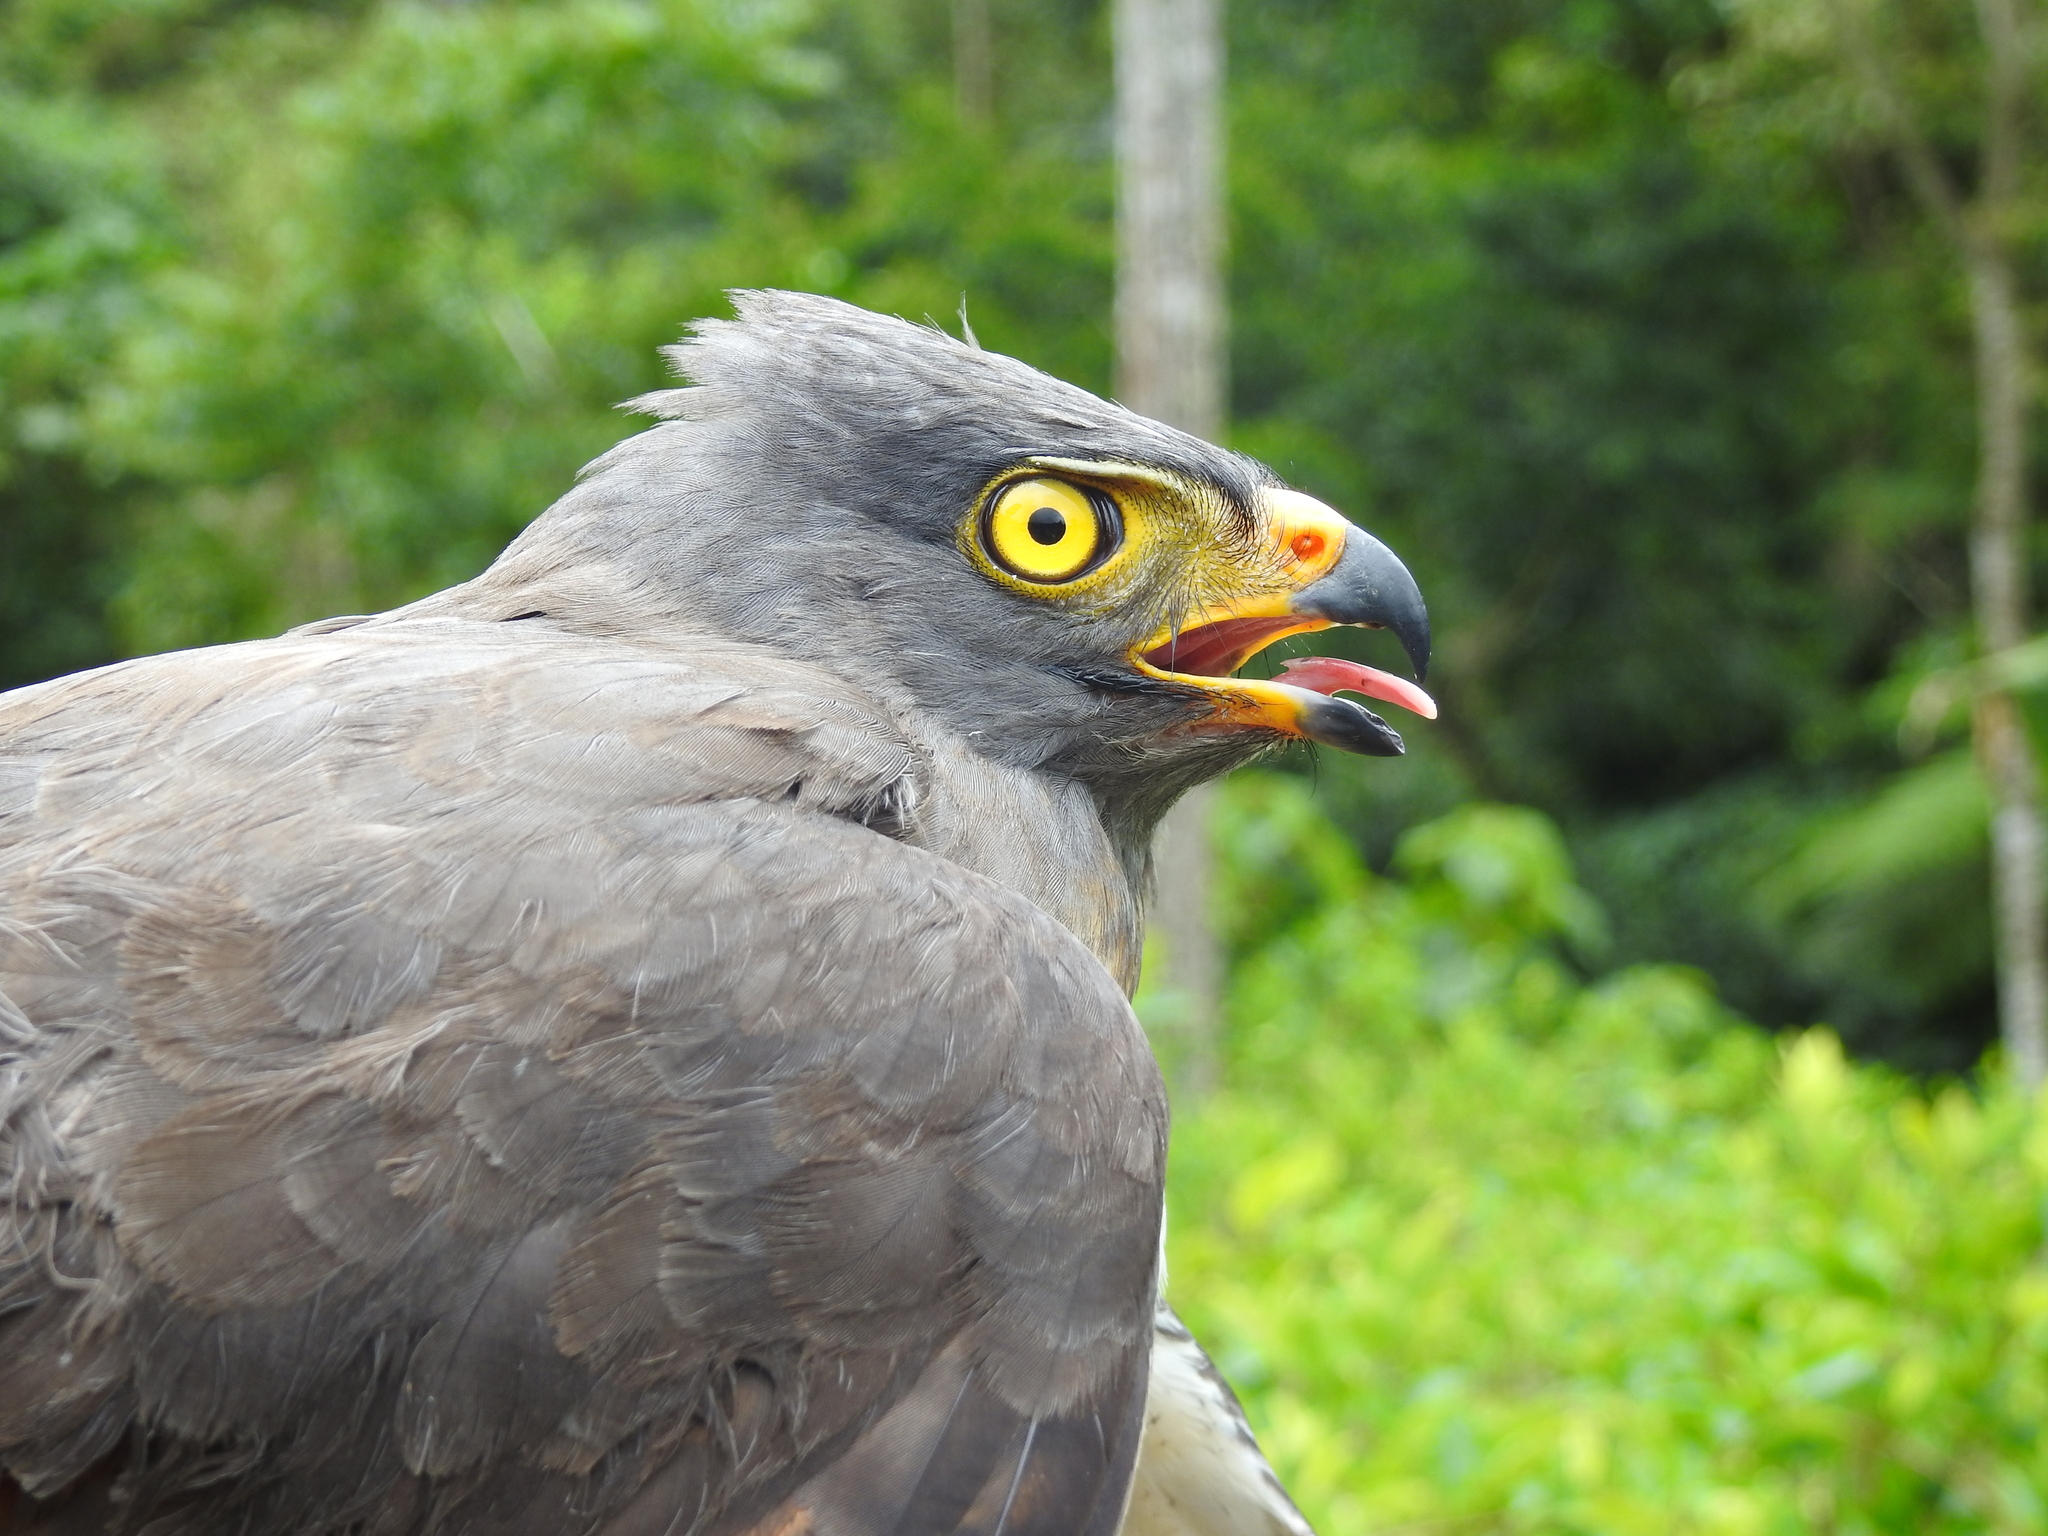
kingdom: Animalia
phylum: Chordata
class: Aves
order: Accipitriformes
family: Accipitridae
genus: Rupornis
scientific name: Rupornis magnirostris
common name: Roadside hawk
